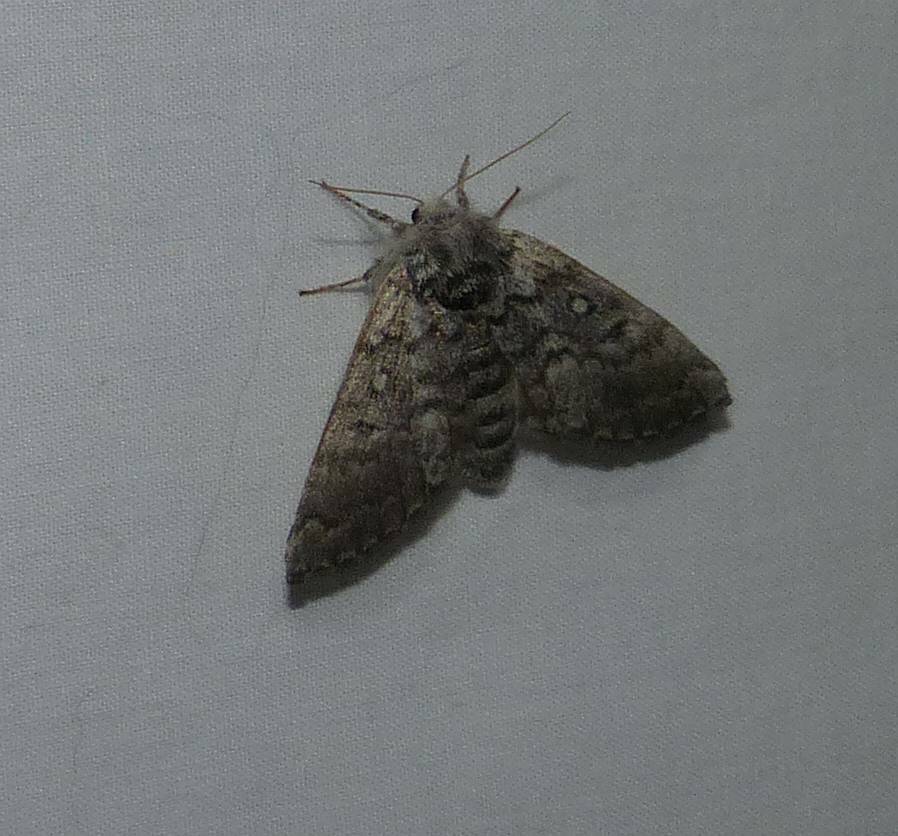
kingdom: Animalia
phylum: Arthropoda
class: Insecta
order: Lepidoptera
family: Noctuidae
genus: Colocasia
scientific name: Colocasia propinquilinea
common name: Close-banded demas
